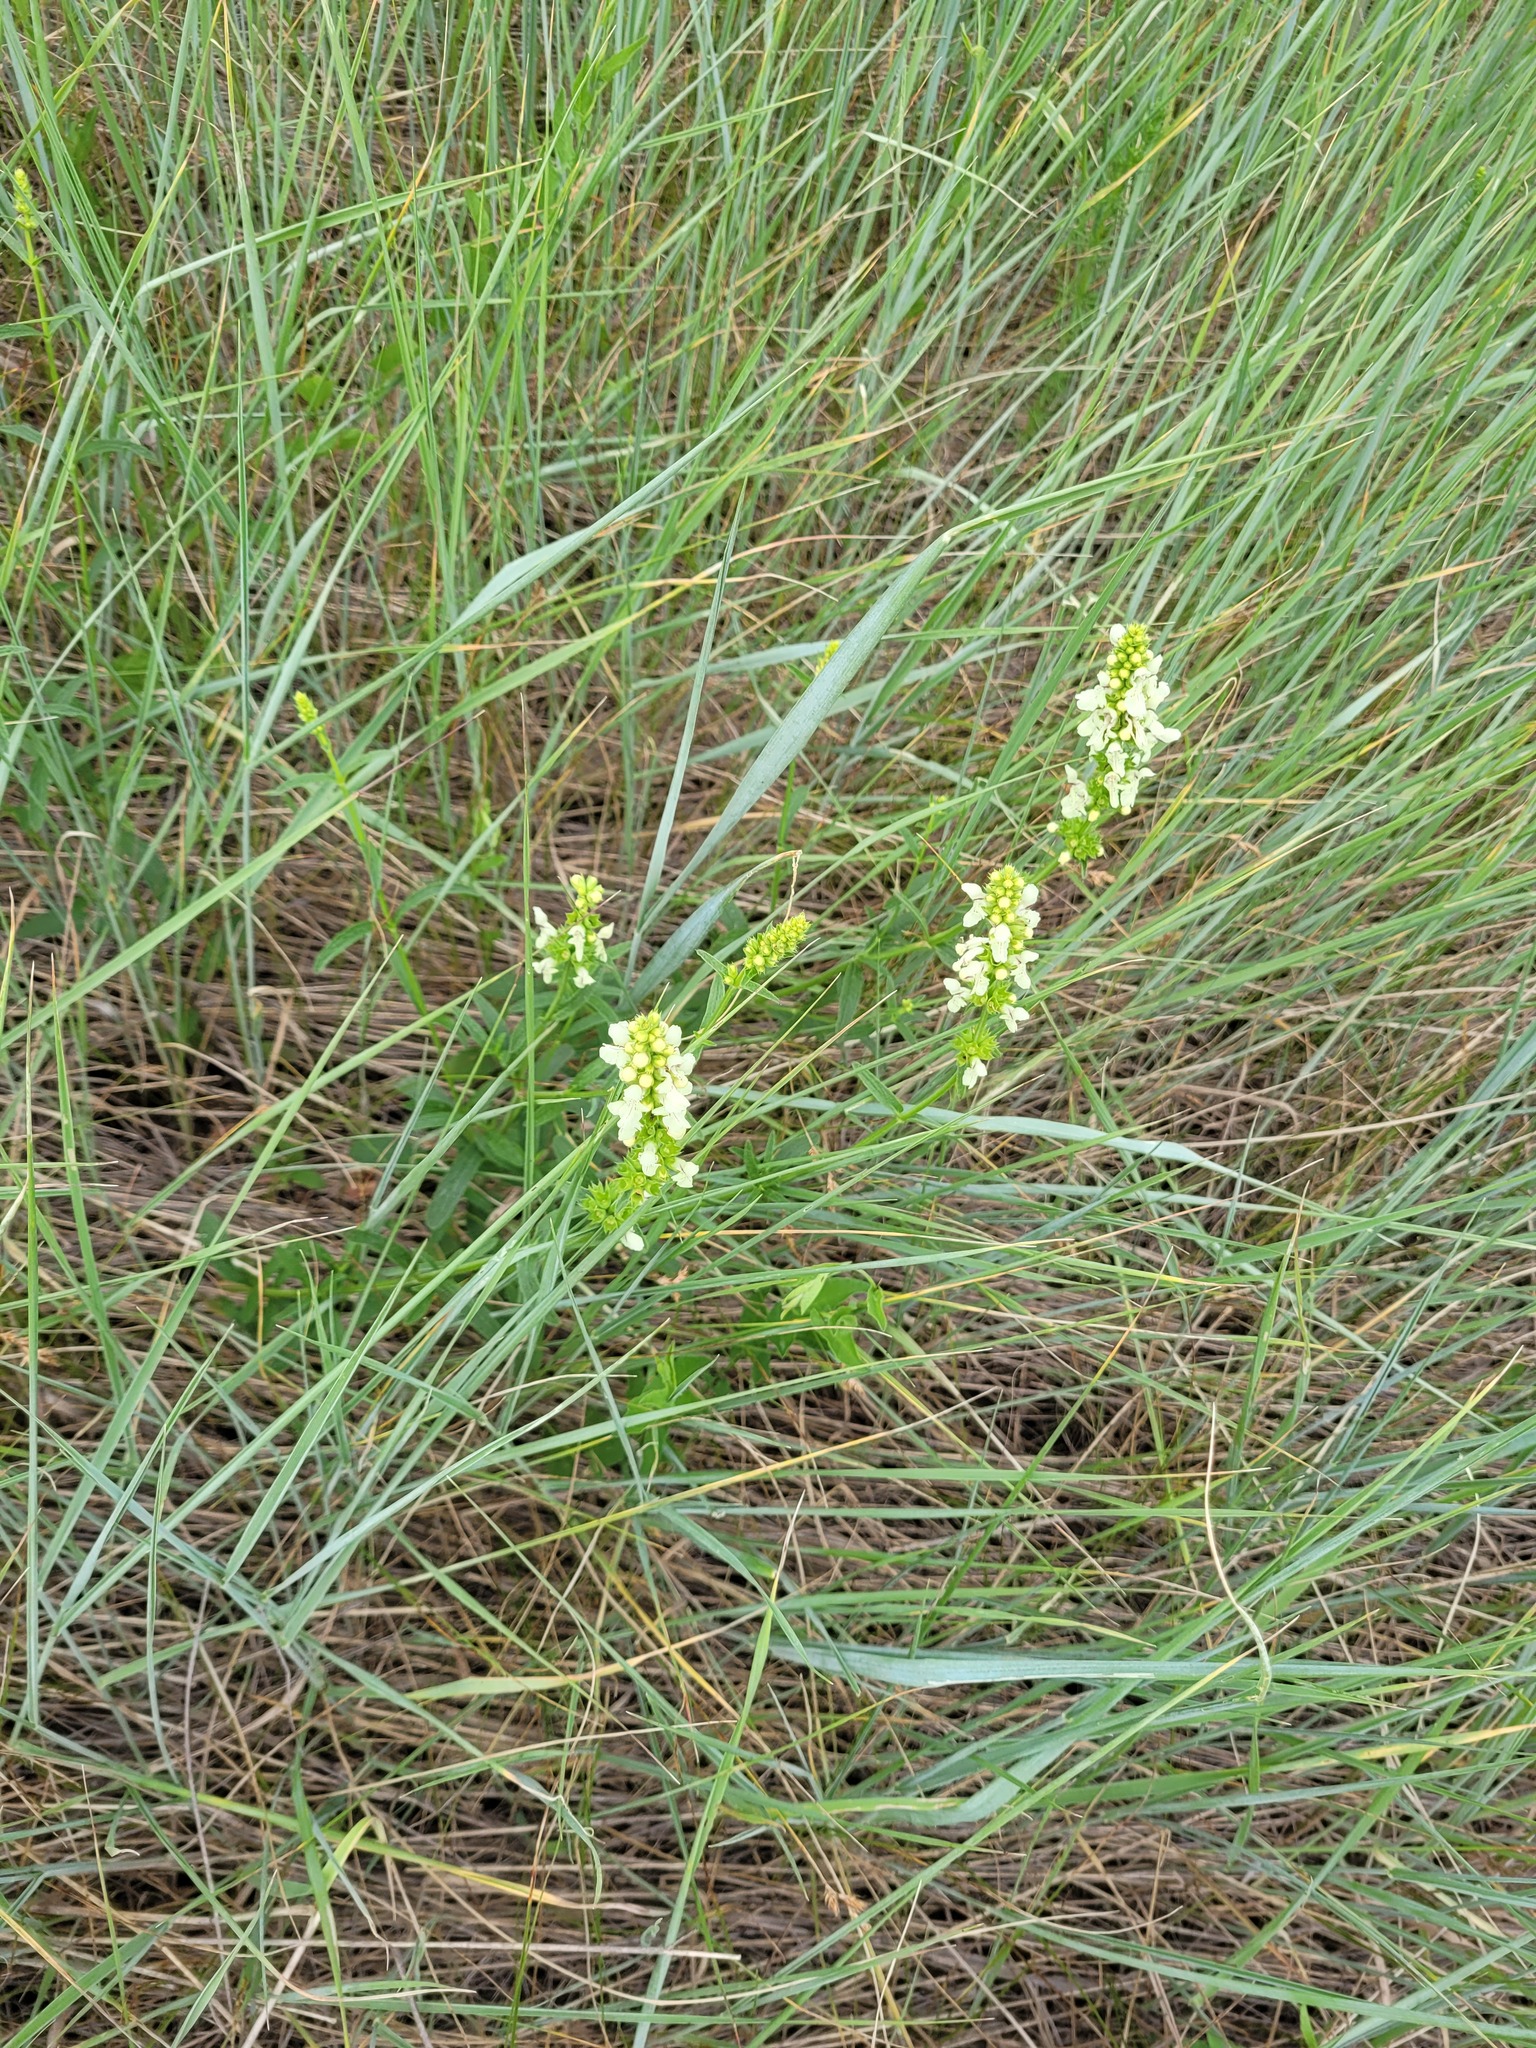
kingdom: Plantae
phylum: Tracheophyta
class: Magnoliopsida
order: Lamiales
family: Lamiaceae
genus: Stachys
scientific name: Stachys recta
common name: Perennial yellow-woundwort
